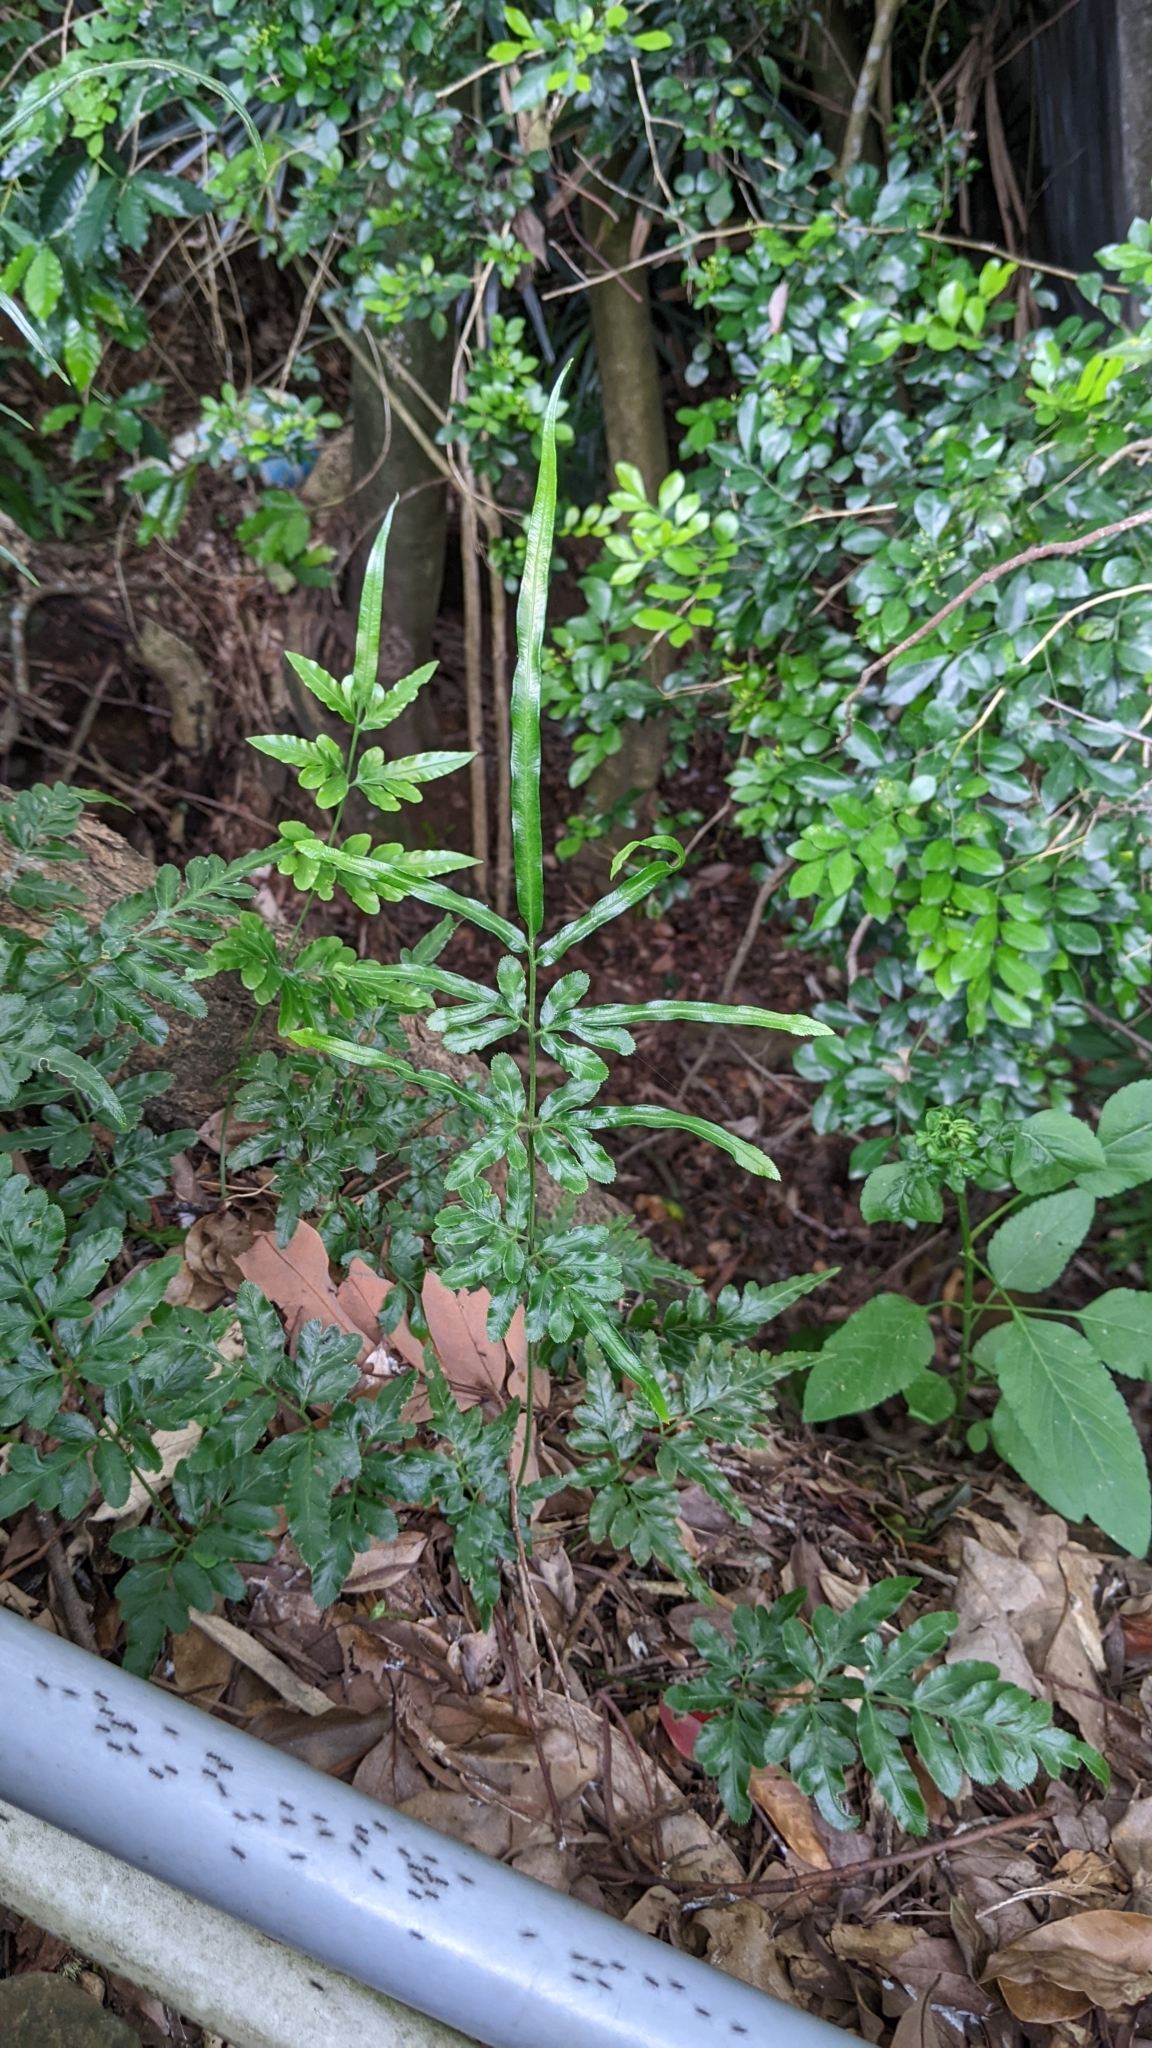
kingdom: Plantae
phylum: Tracheophyta
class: Polypodiopsida
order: Polypodiales
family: Pteridaceae
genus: Pteris
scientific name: Pteris ensiformis
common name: Sword brake
